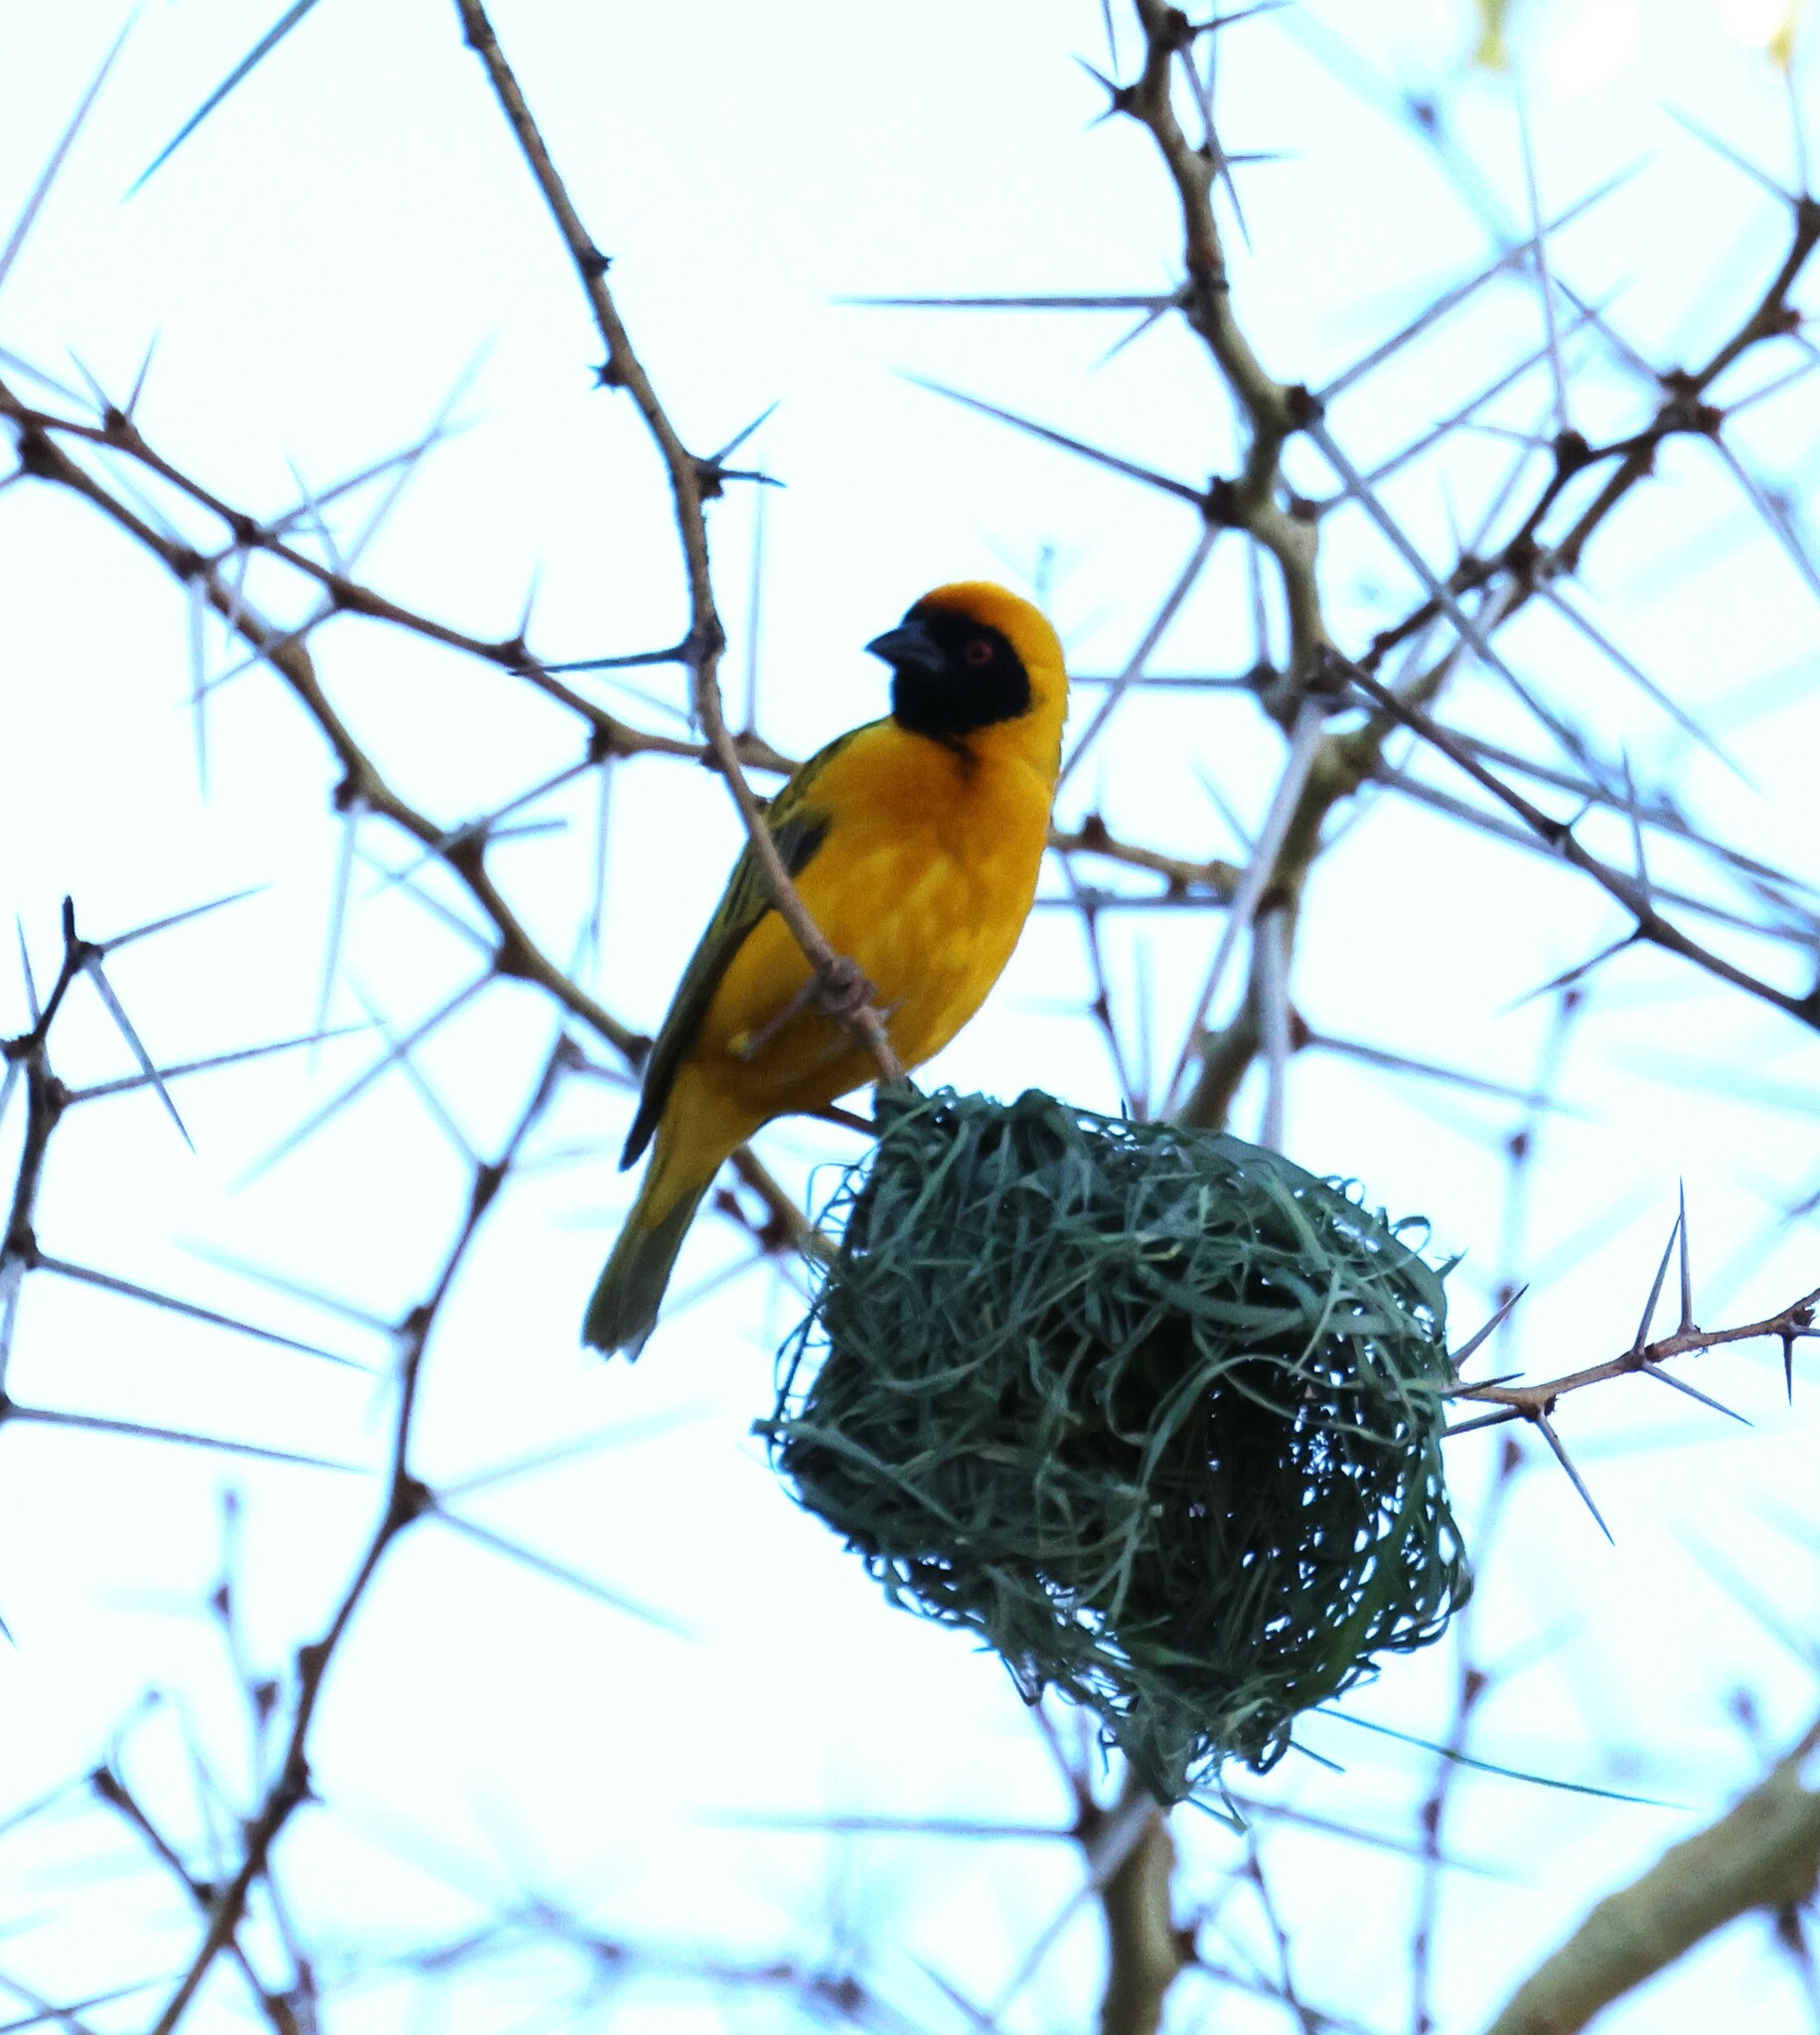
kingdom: Animalia
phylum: Chordata
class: Aves
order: Passeriformes
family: Ploceidae
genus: Ploceus
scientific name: Ploceus velatus
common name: Southern masked weaver
